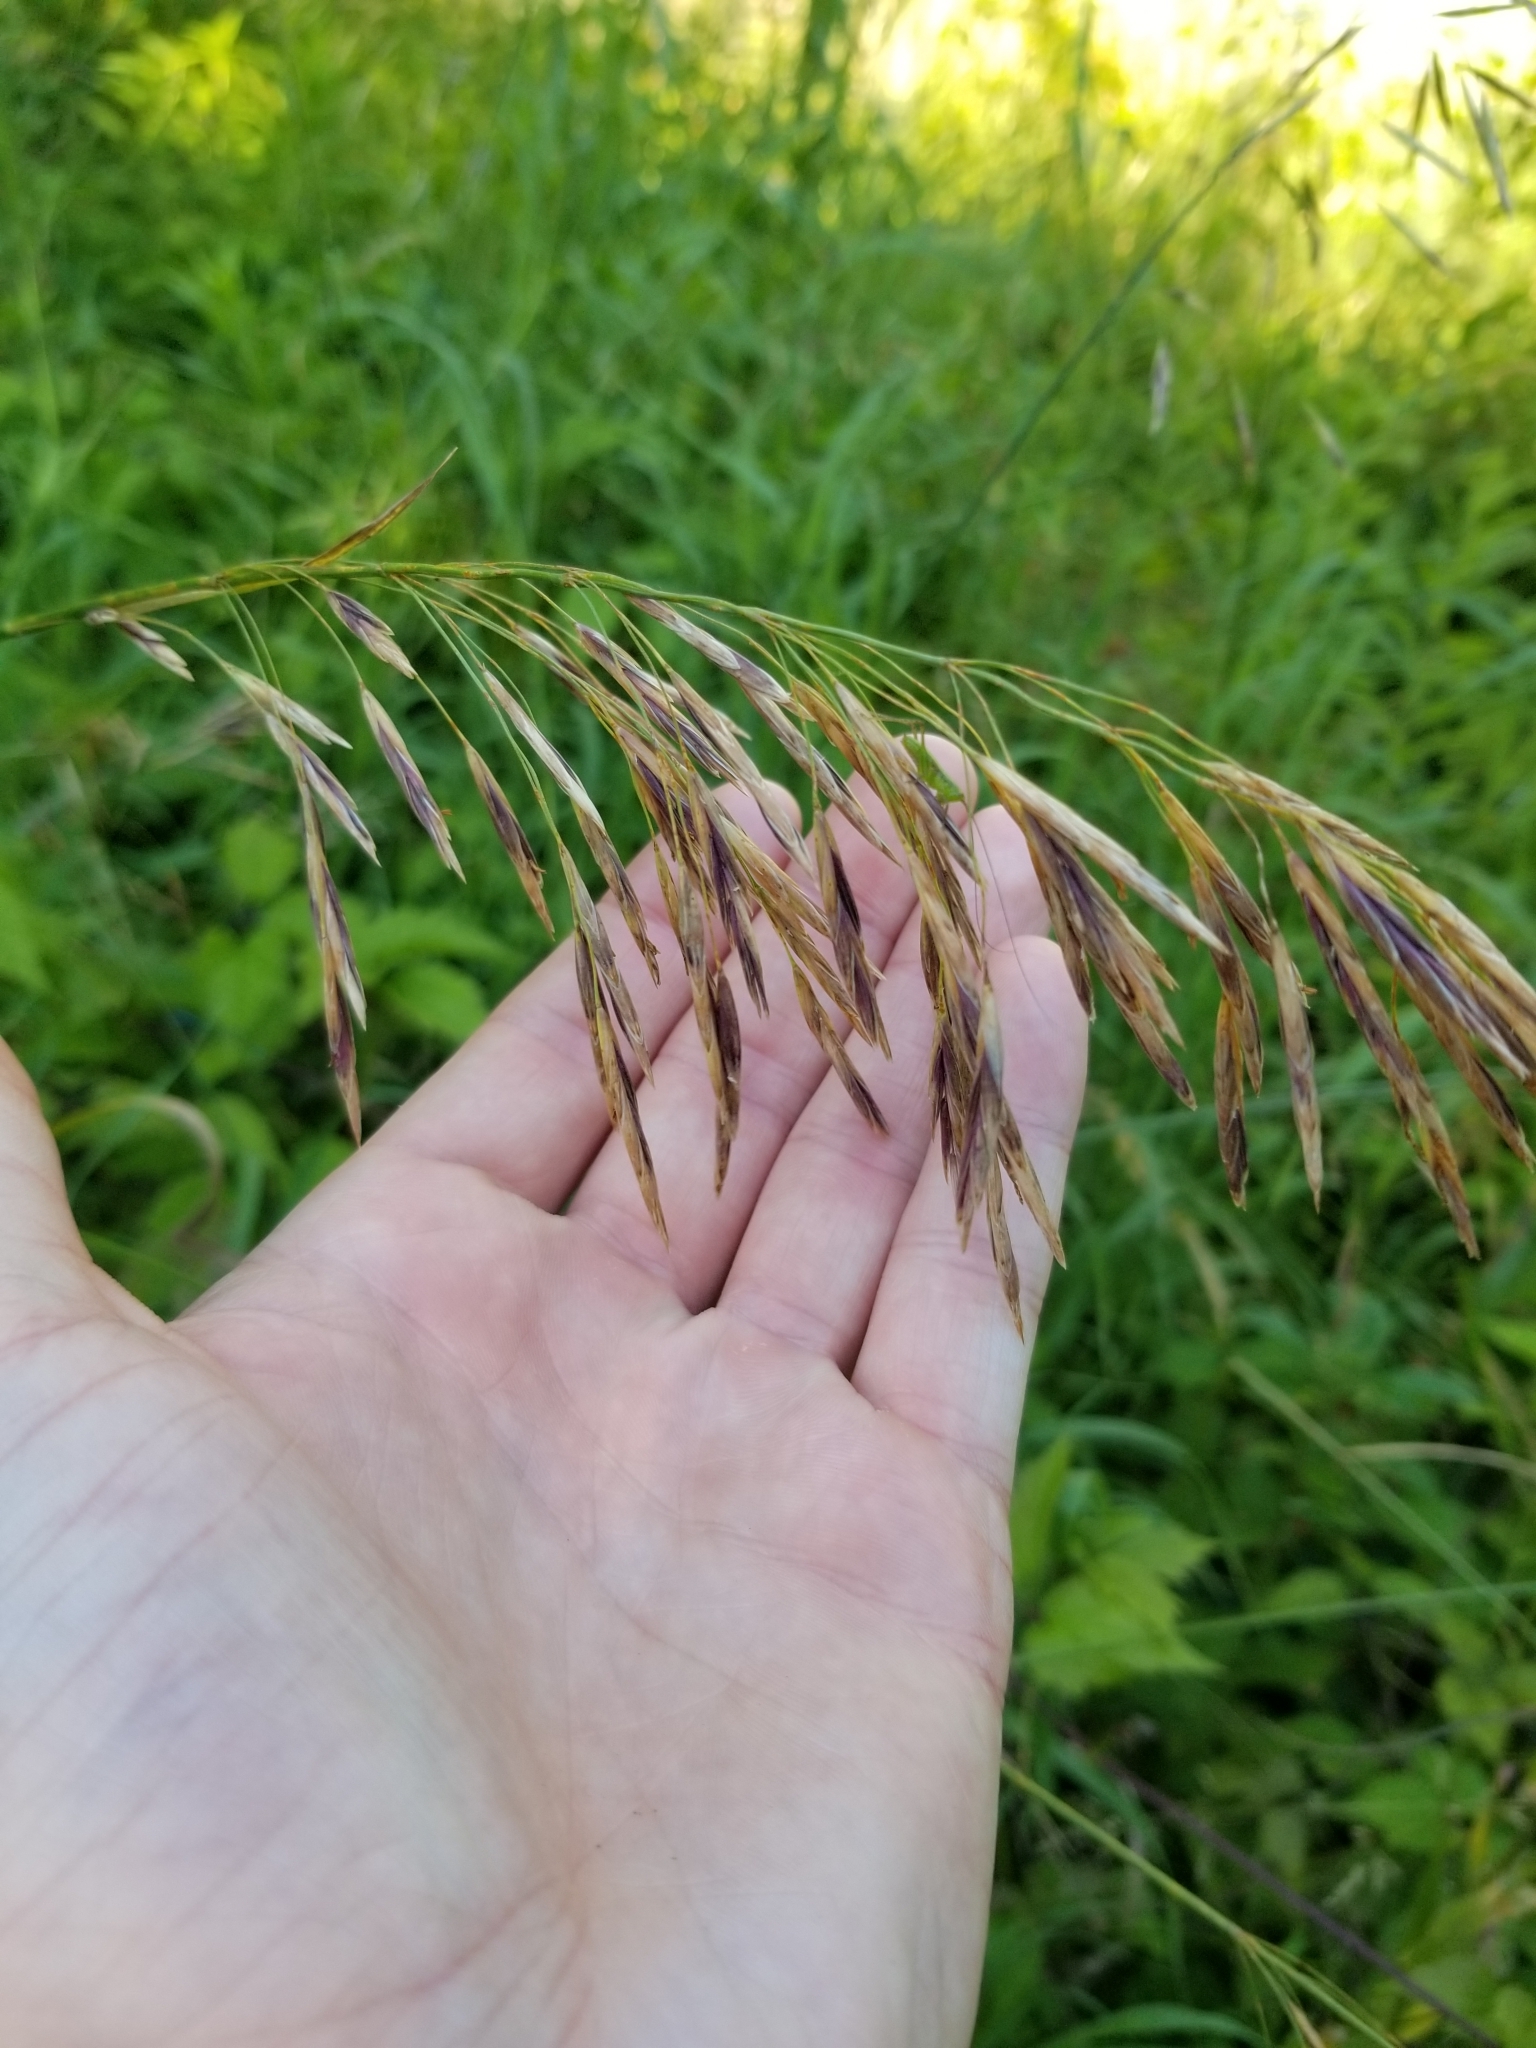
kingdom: Plantae
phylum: Tracheophyta
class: Liliopsida
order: Poales
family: Poaceae
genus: Bromus
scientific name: Bromus inermis
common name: Smooth brome
